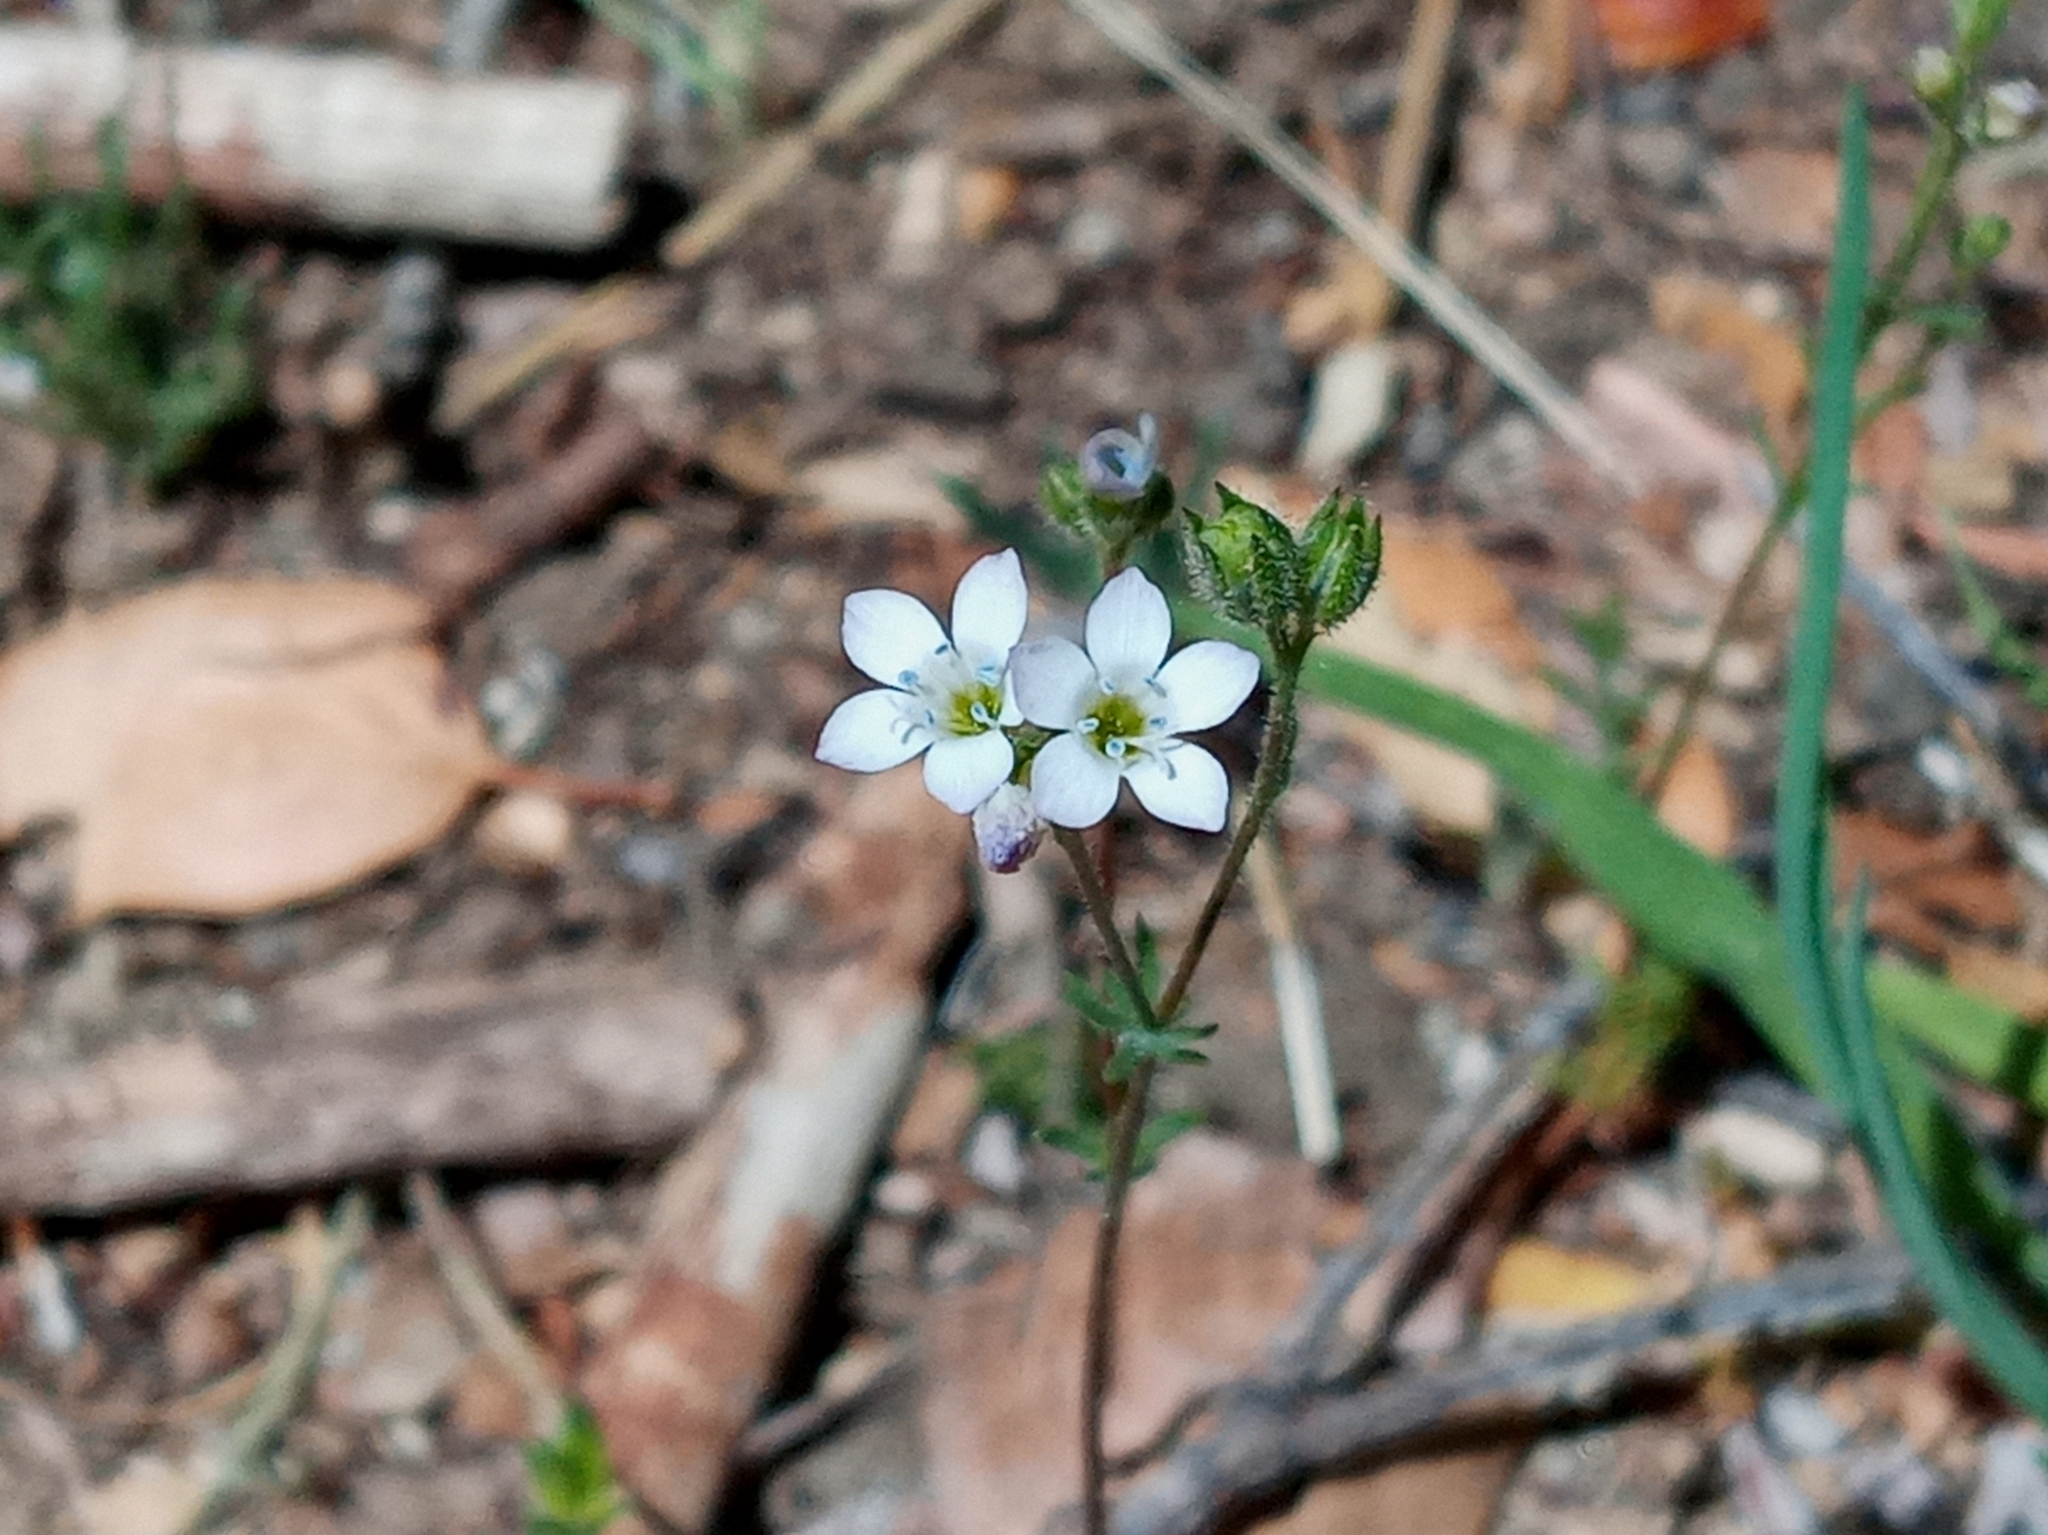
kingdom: Plantae
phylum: Tracheophyta
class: Magnoliopsida
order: Ericales
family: Polemoniaceae
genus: Gilia
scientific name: Gilia angelensis
